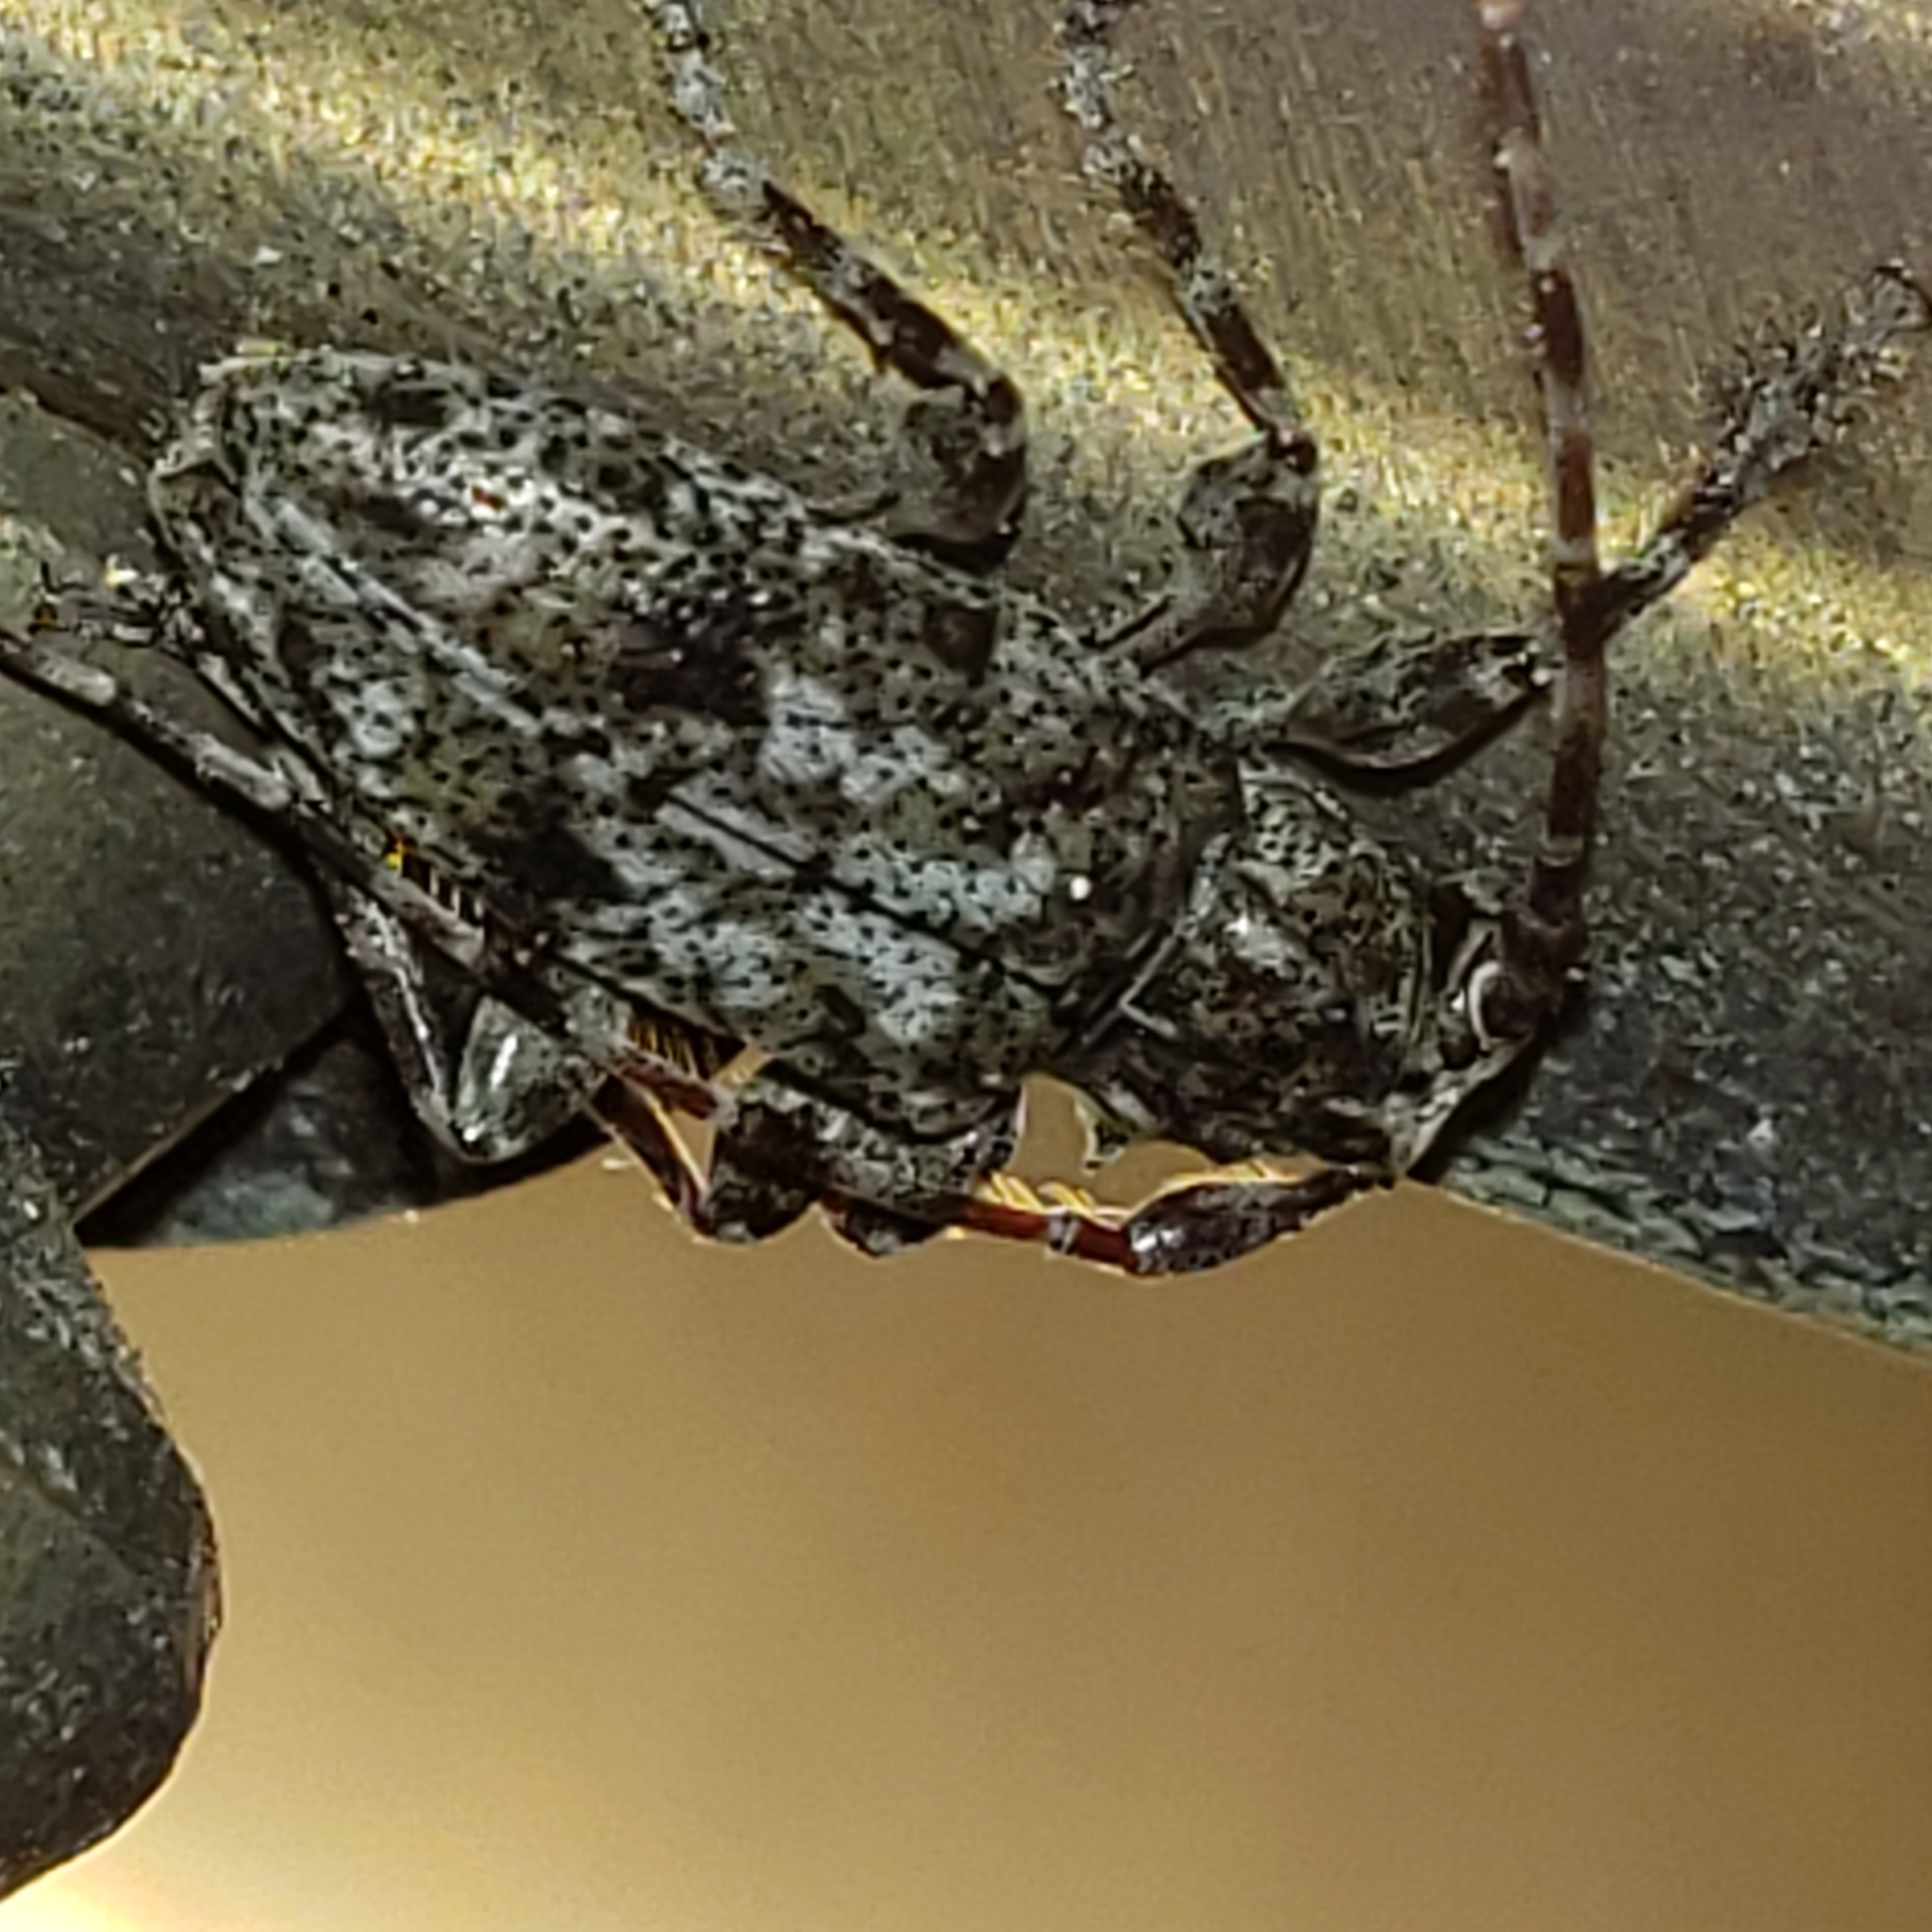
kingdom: Animalia
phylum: Arthropoda
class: Insecta
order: Coleoptera
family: Cerambycidae
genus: Aegomorphus
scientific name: Aegomorphus modestus
